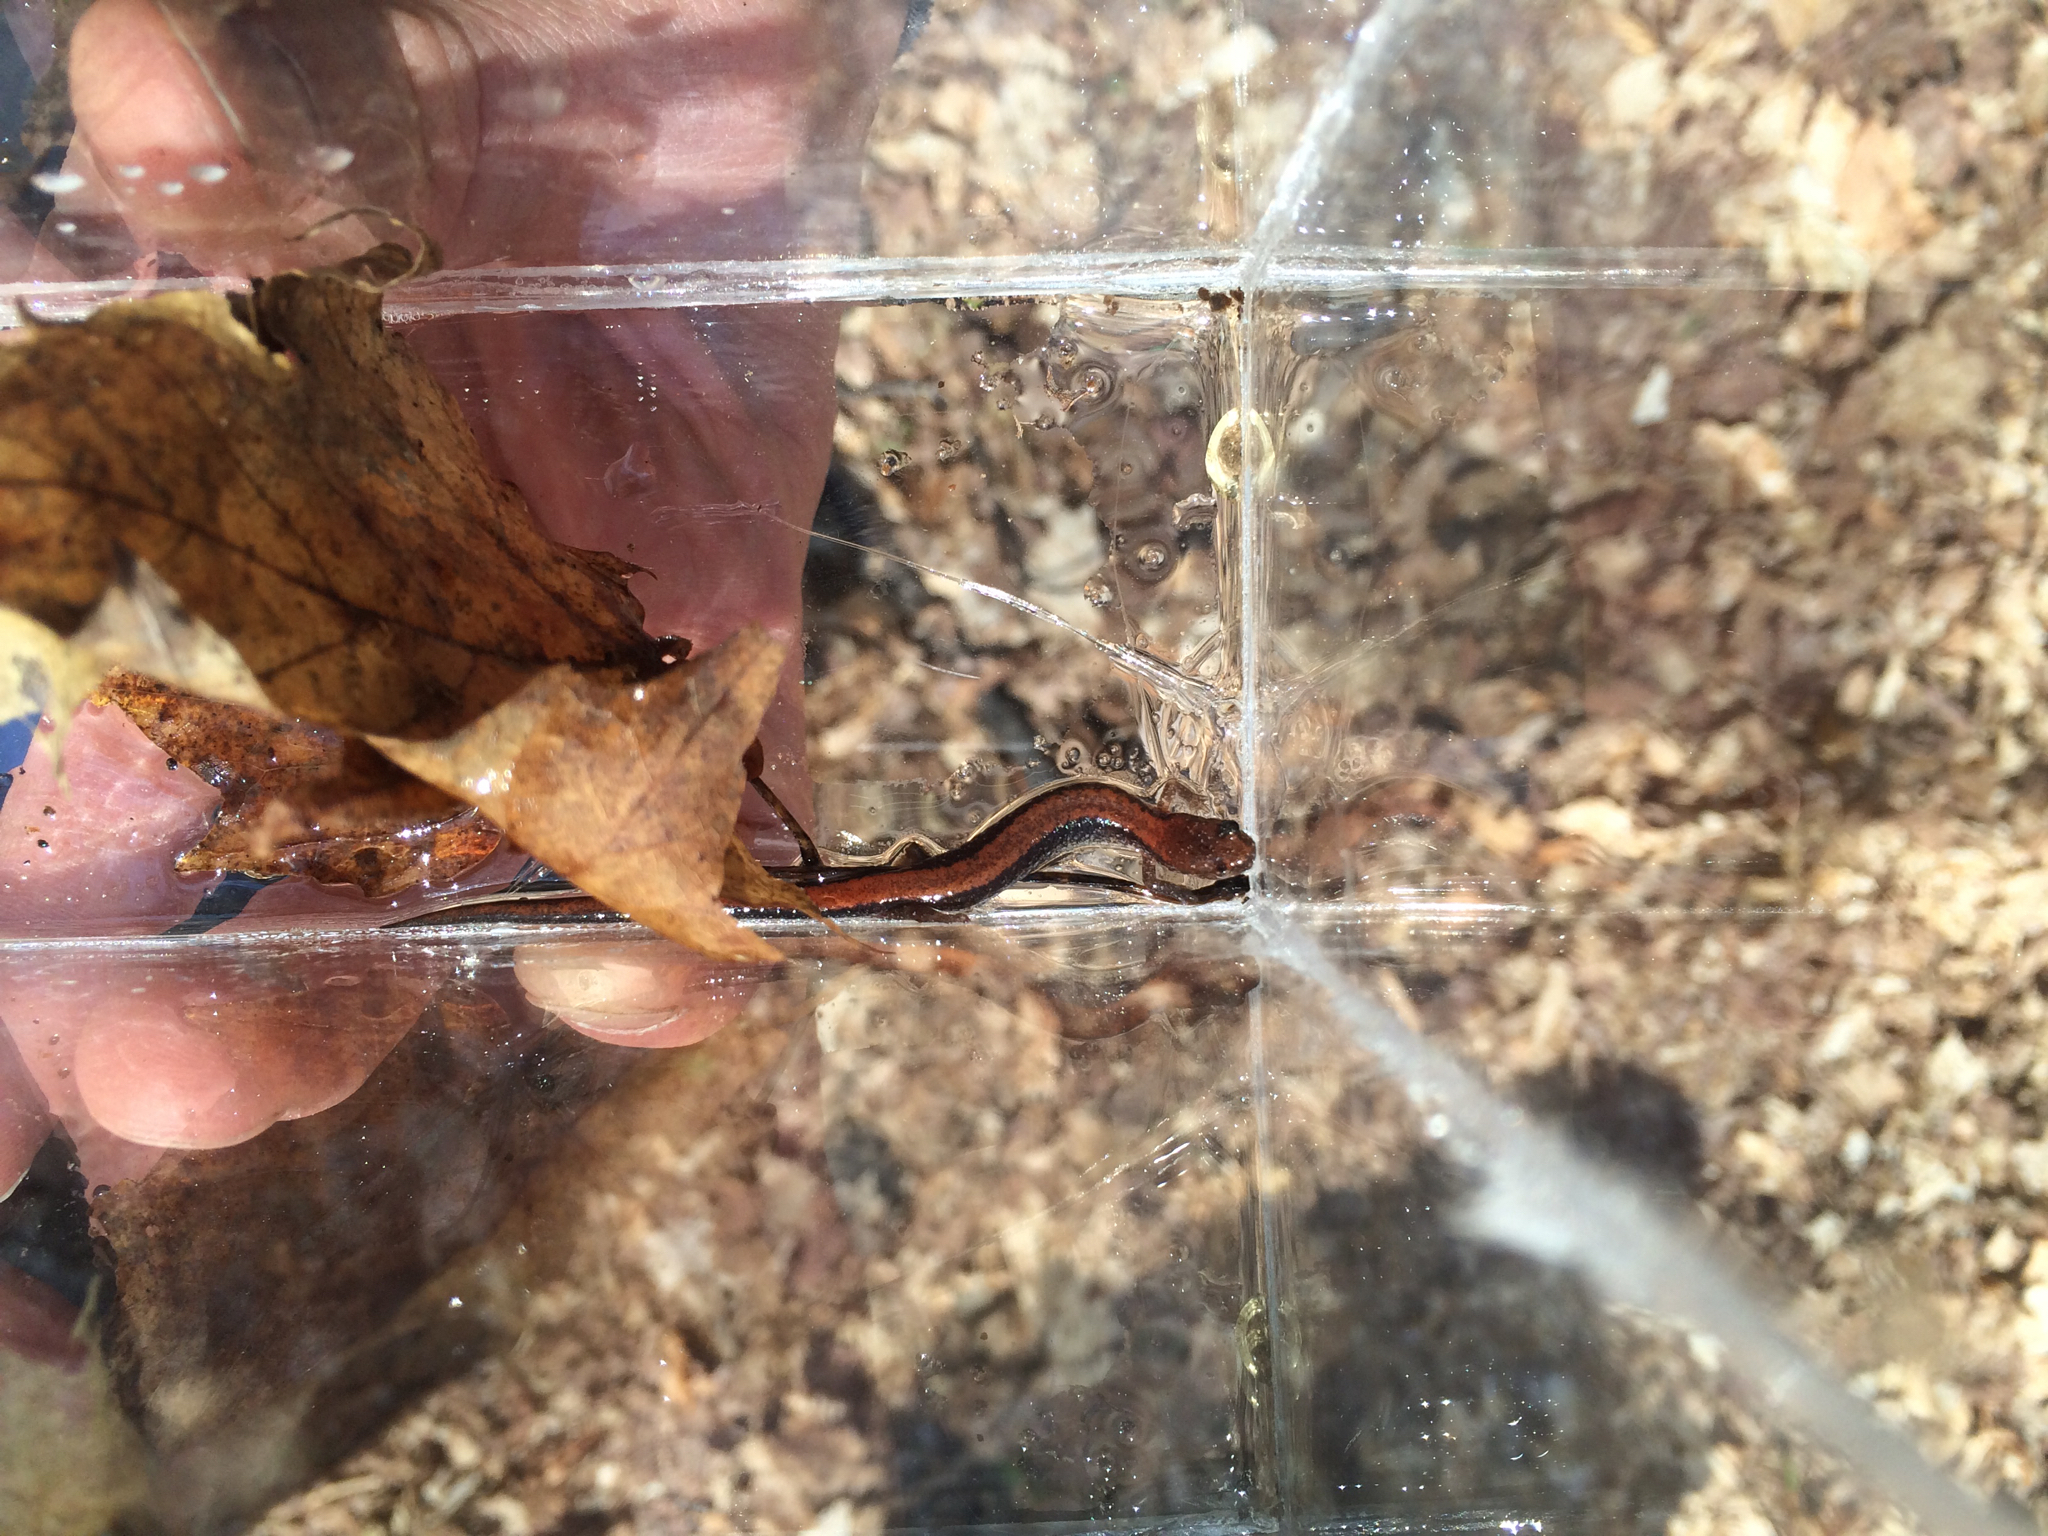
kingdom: Animalia
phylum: Chordata
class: Amphibia
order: Caudata
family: Plethodontidae
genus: Plethodon
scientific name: Plethodon cinereus
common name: Redback salamander
